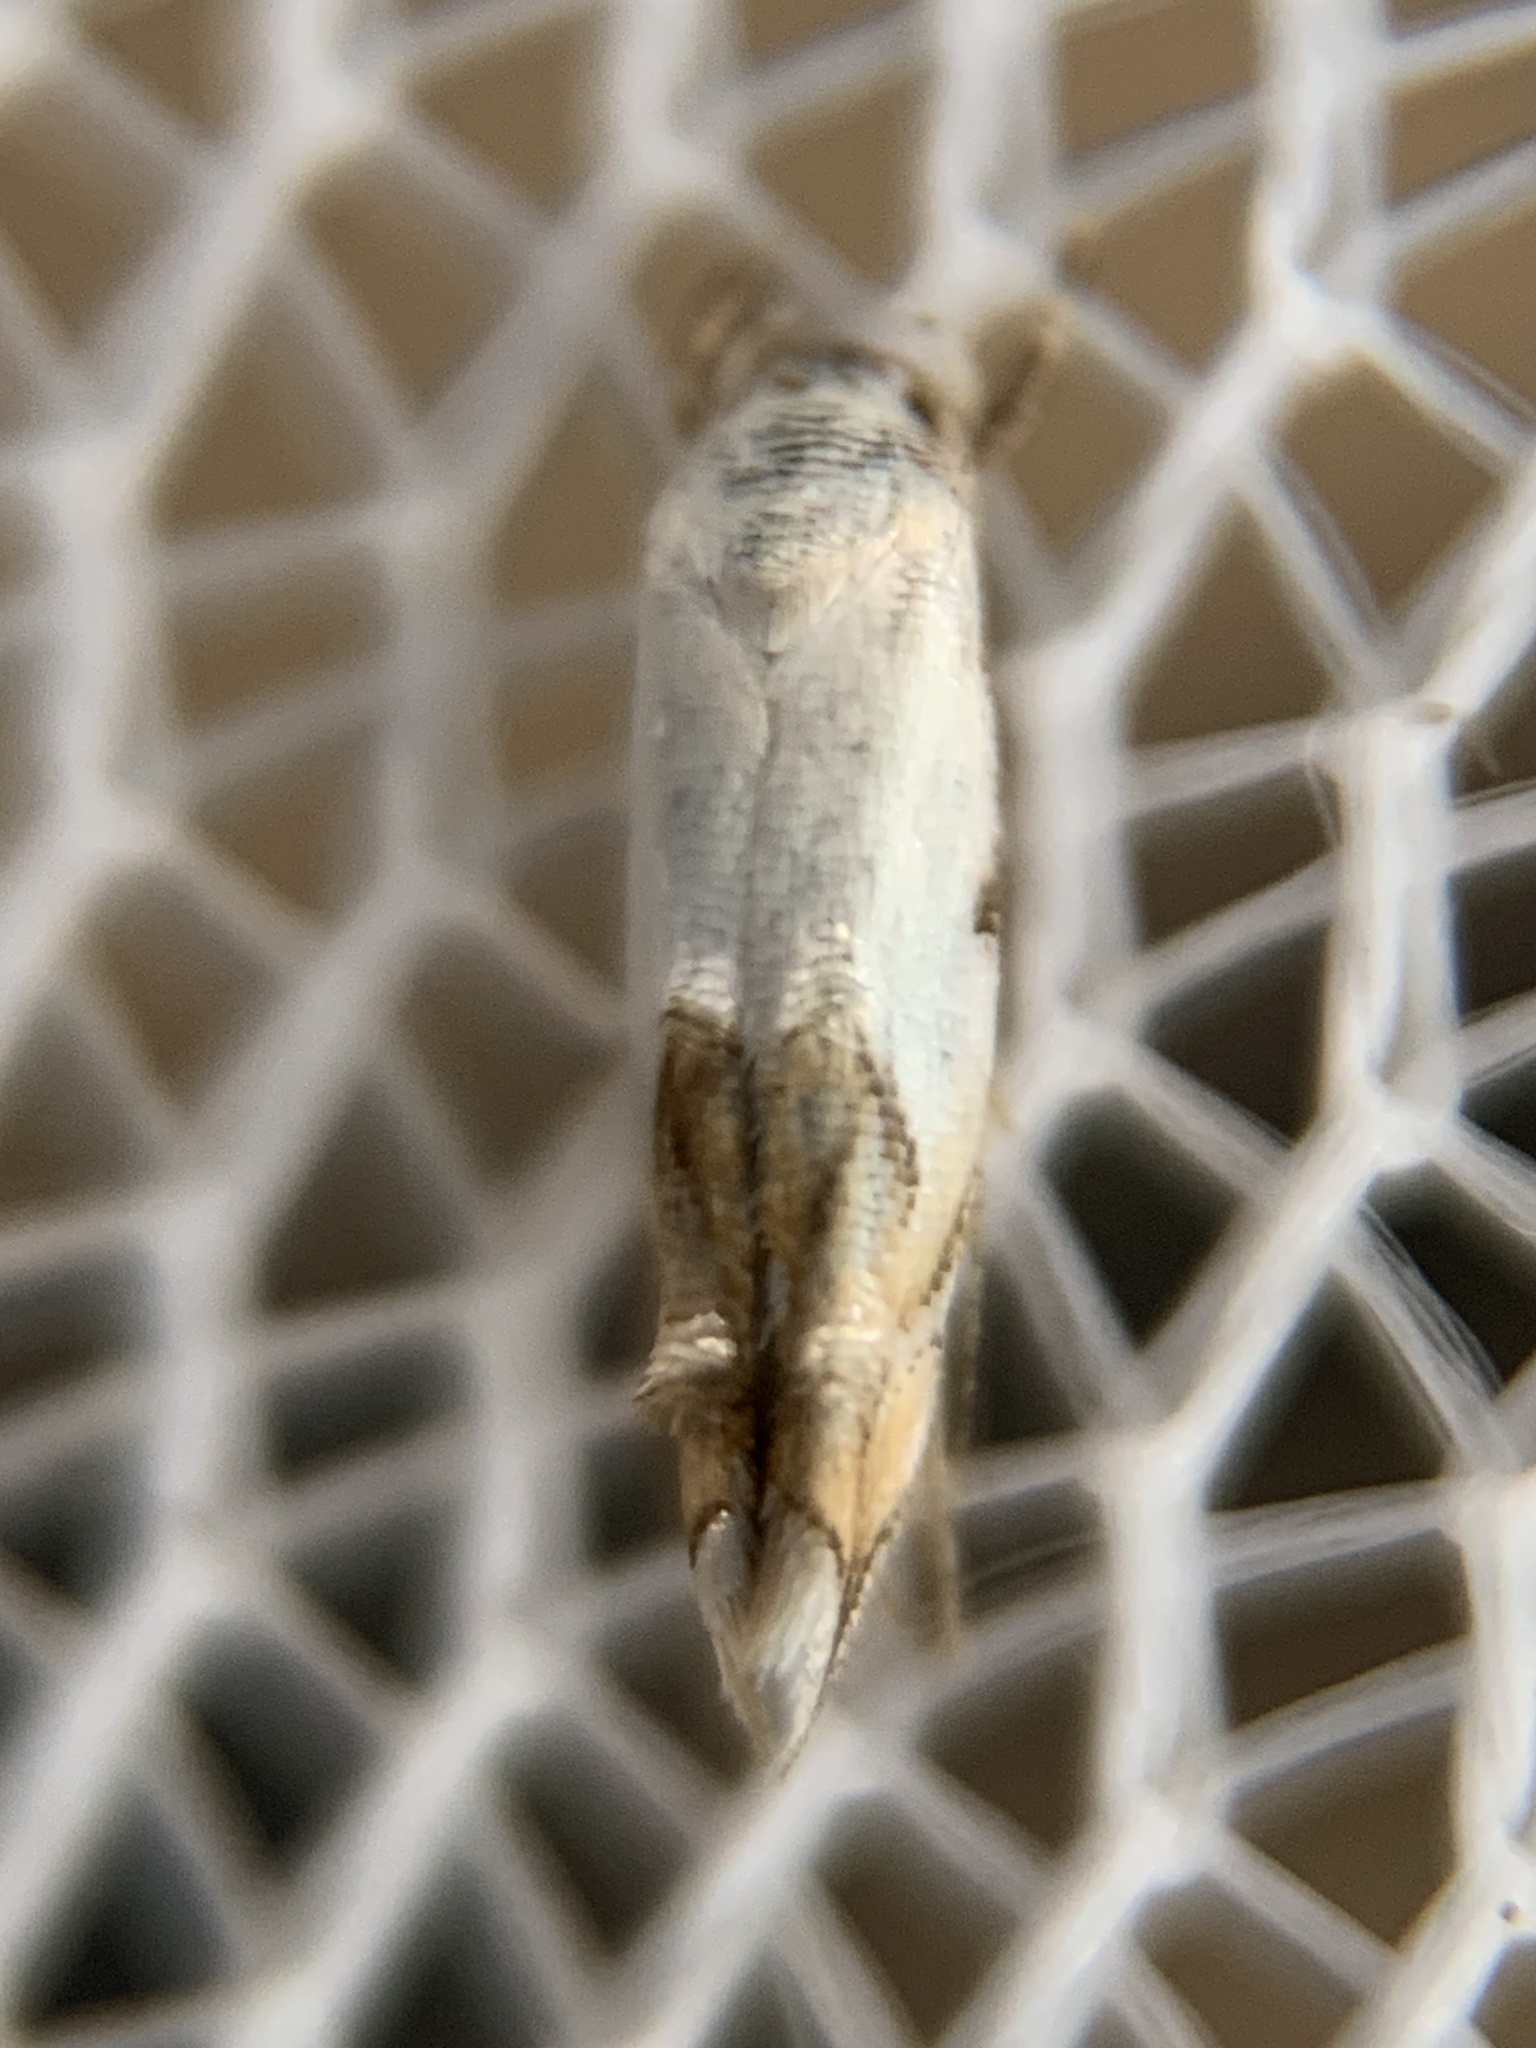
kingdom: Animalia
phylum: Arthropoda
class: Insecta
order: Lepidoptera
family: Momphidae
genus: Mompha
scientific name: Mompha bottimeri
